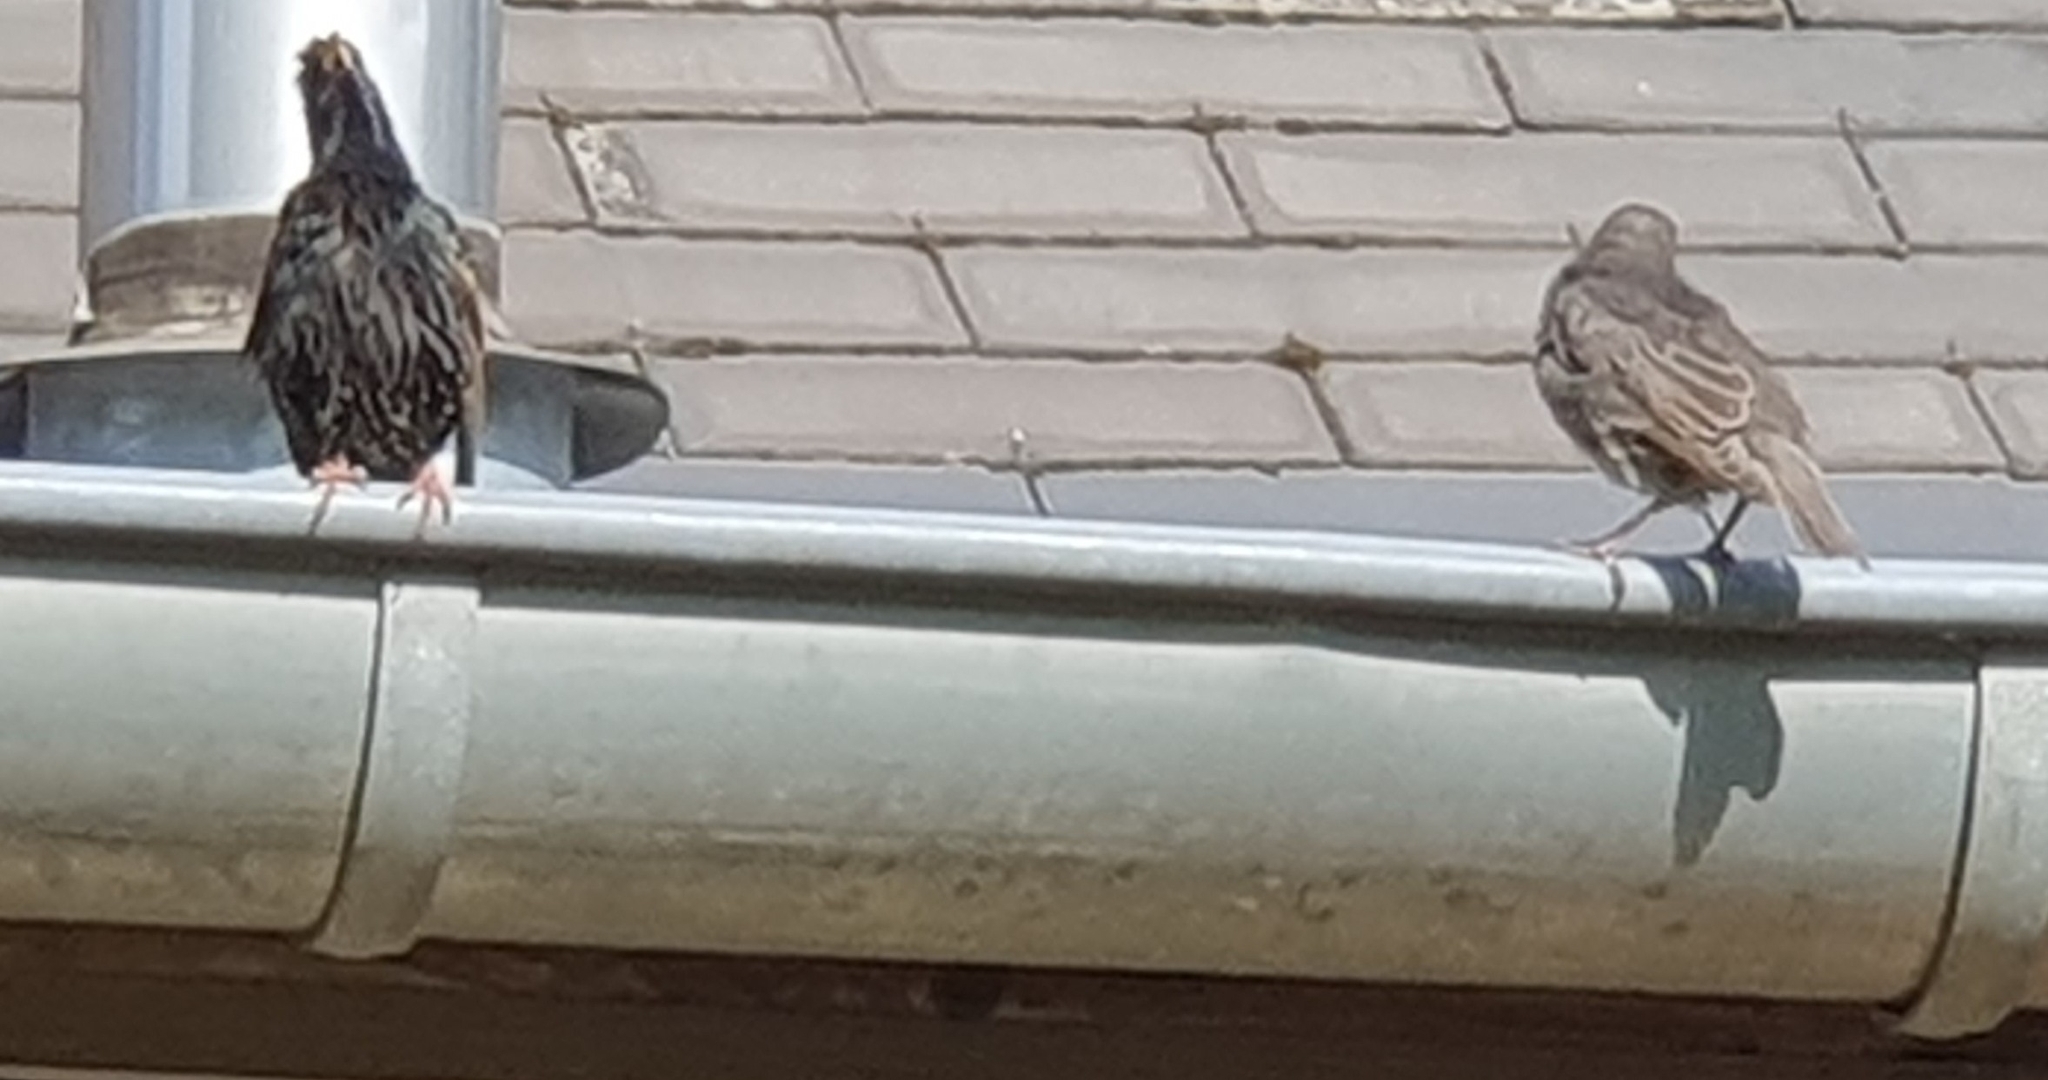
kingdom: Animalia
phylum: Chordata
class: Aves
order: Passeriformes
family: Sturnidae
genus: Sturnus
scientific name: Sturnus vulgaris
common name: Common starling
